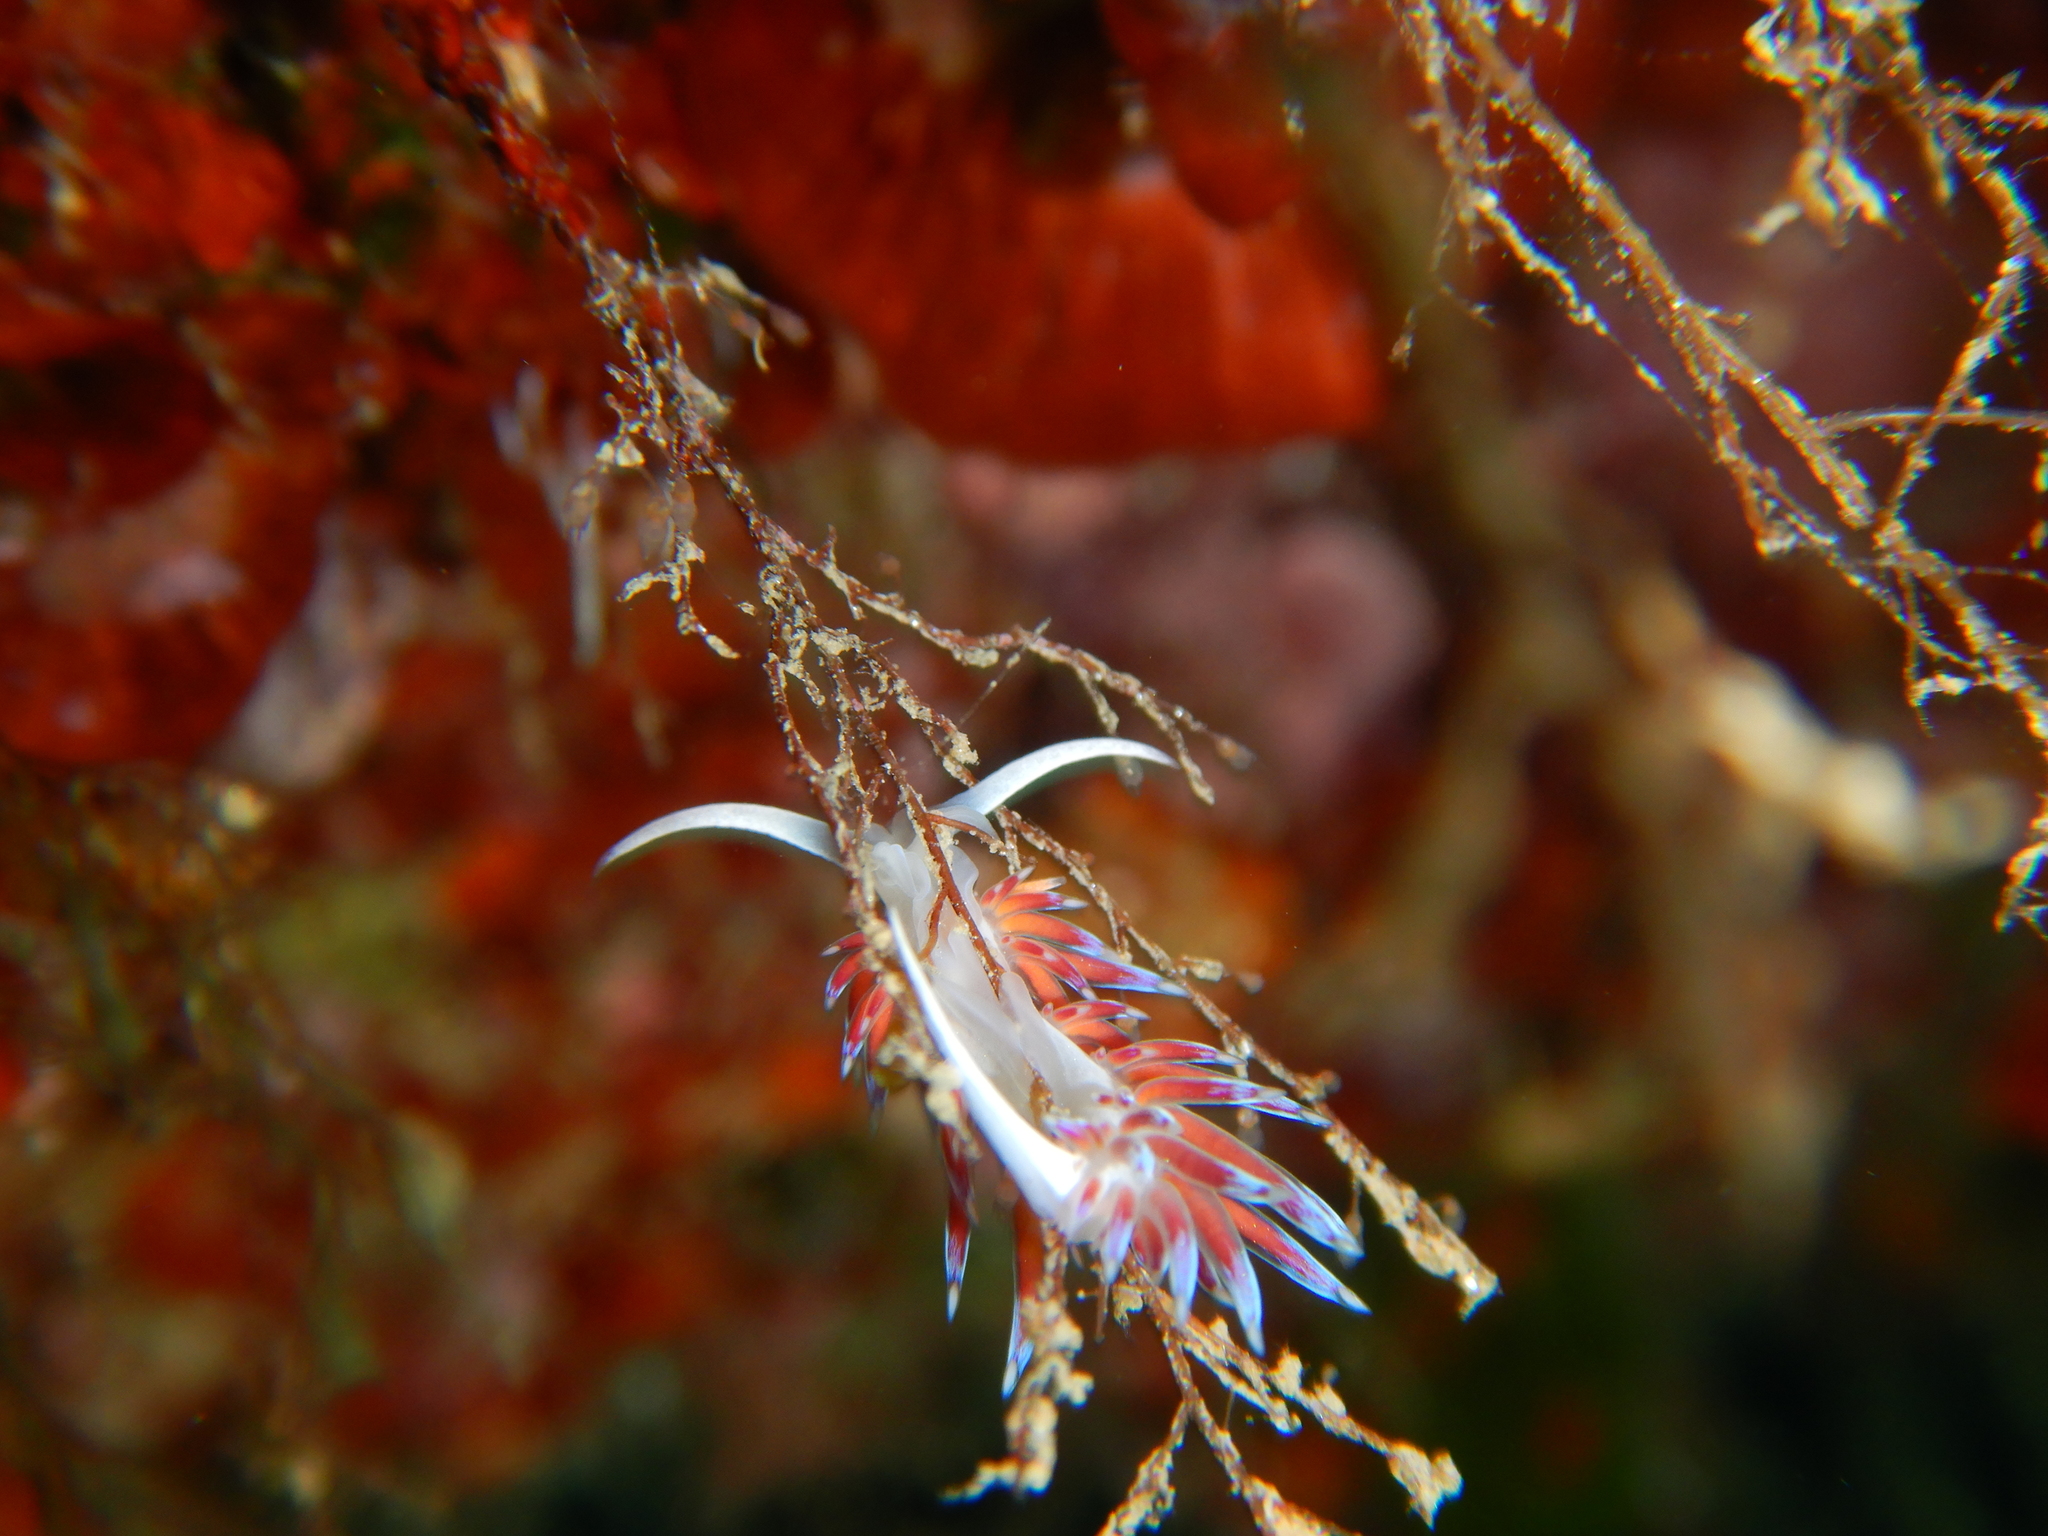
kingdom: Animalia
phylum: Mollusca
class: Gastropoda
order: Nudibranchia
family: Facelinidae
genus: Cratena
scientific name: Cratena peregrina
